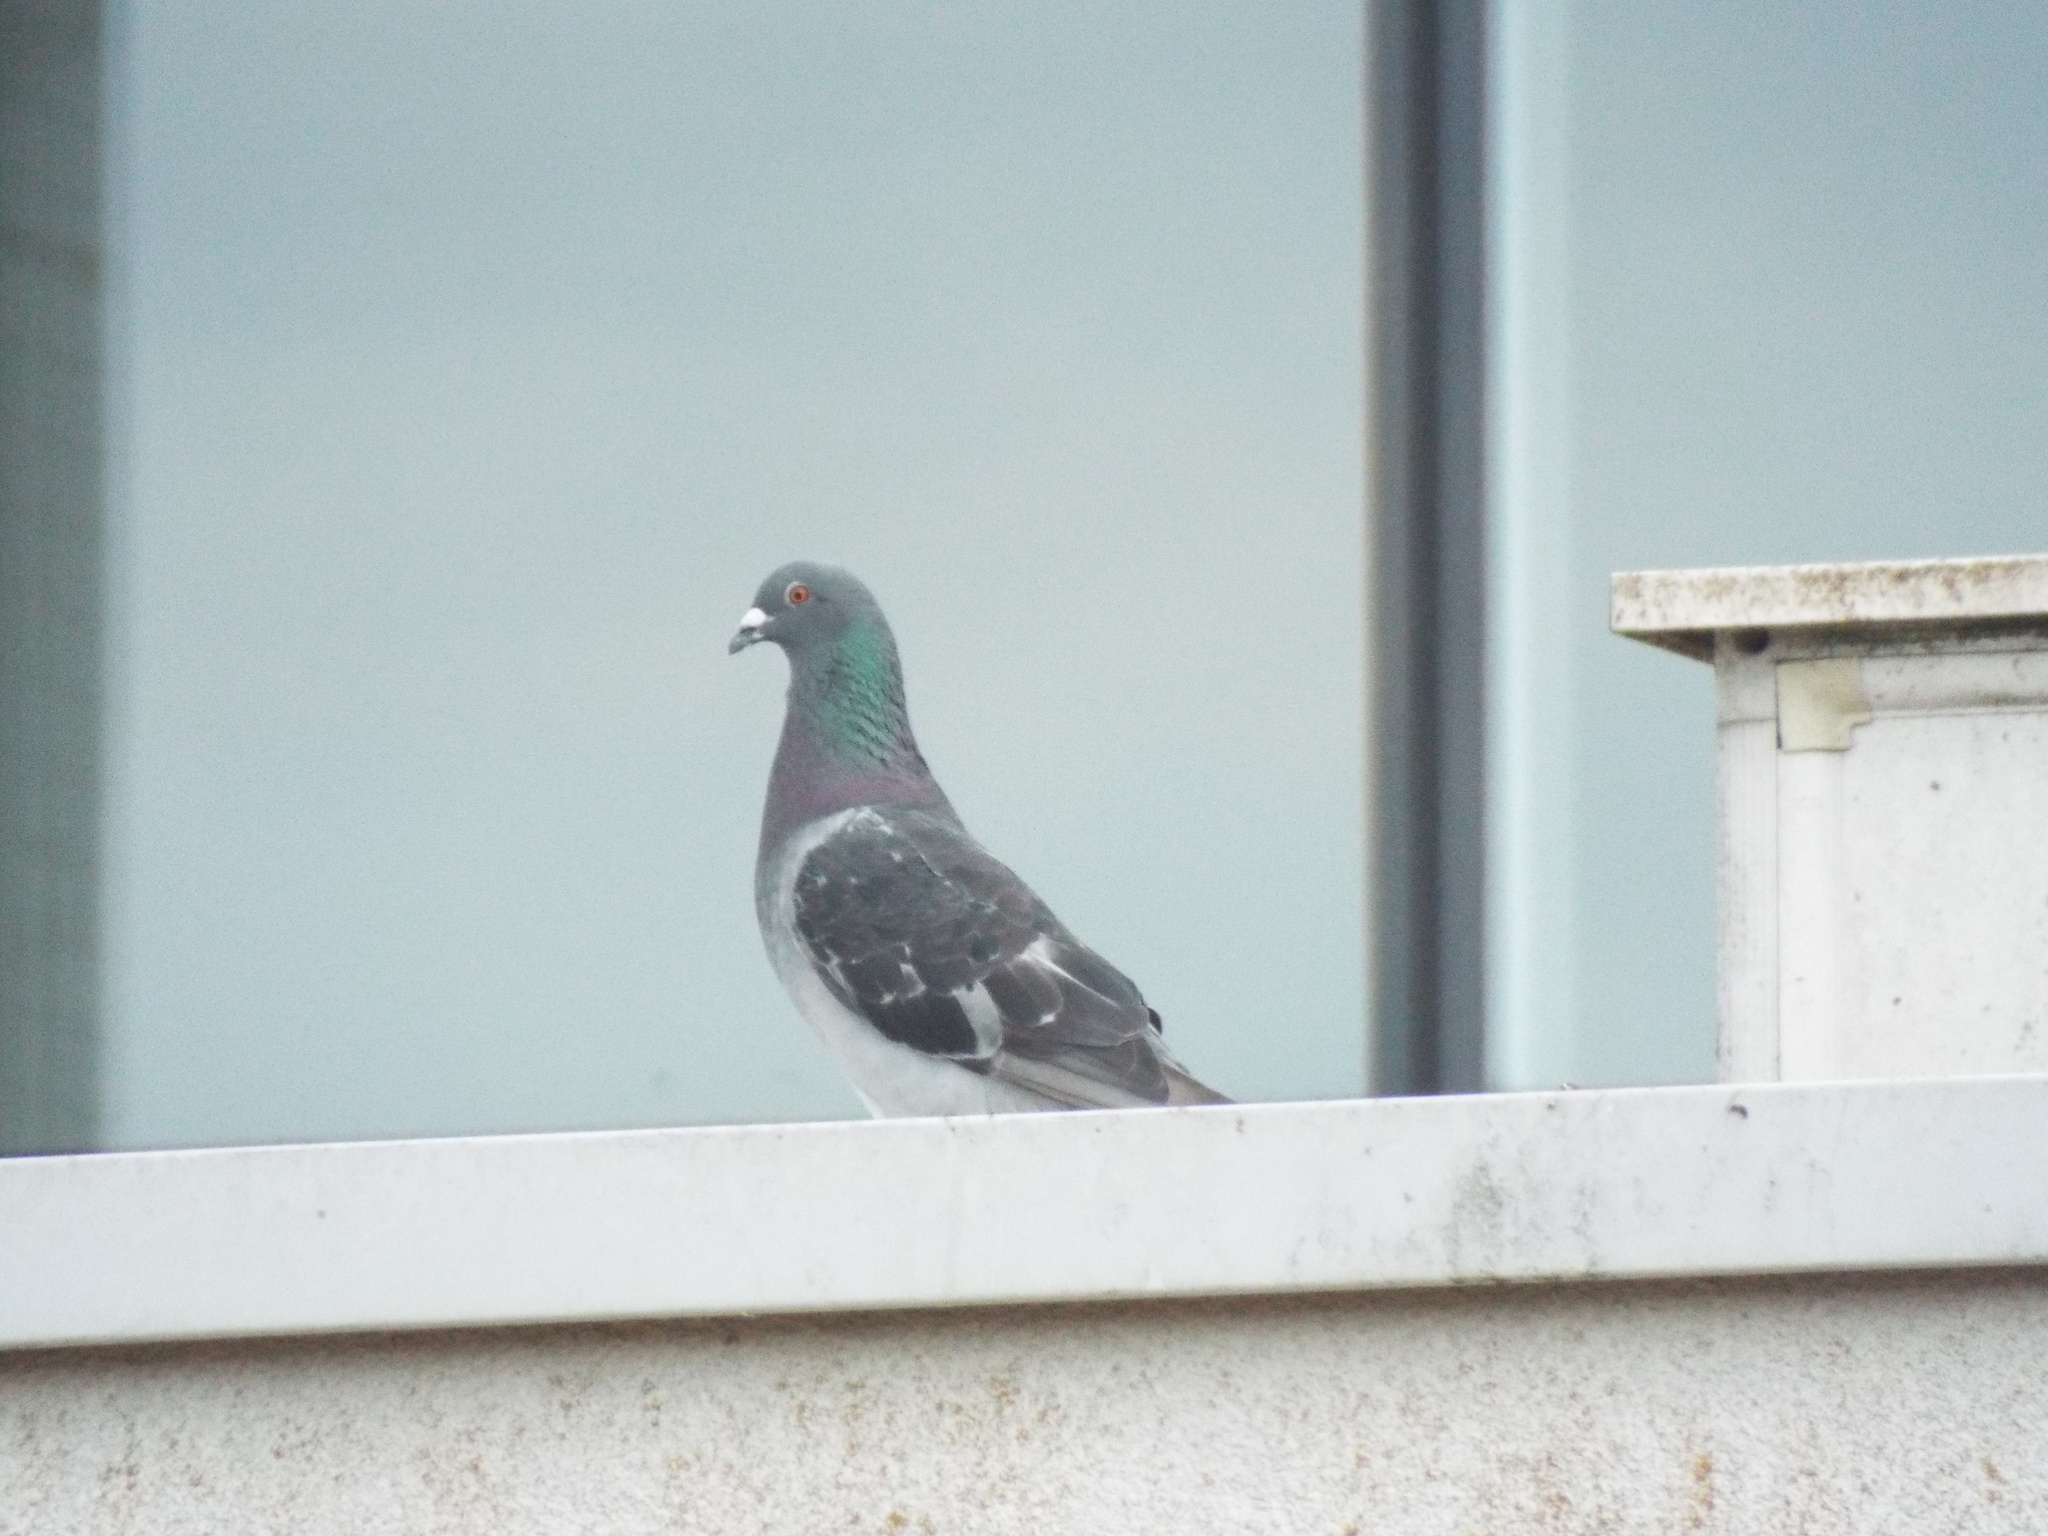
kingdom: Animalia
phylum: Chordata
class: Aves
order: Columbiformes
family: Columbidae
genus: Columba
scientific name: Columba livia
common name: Rock pigeon
